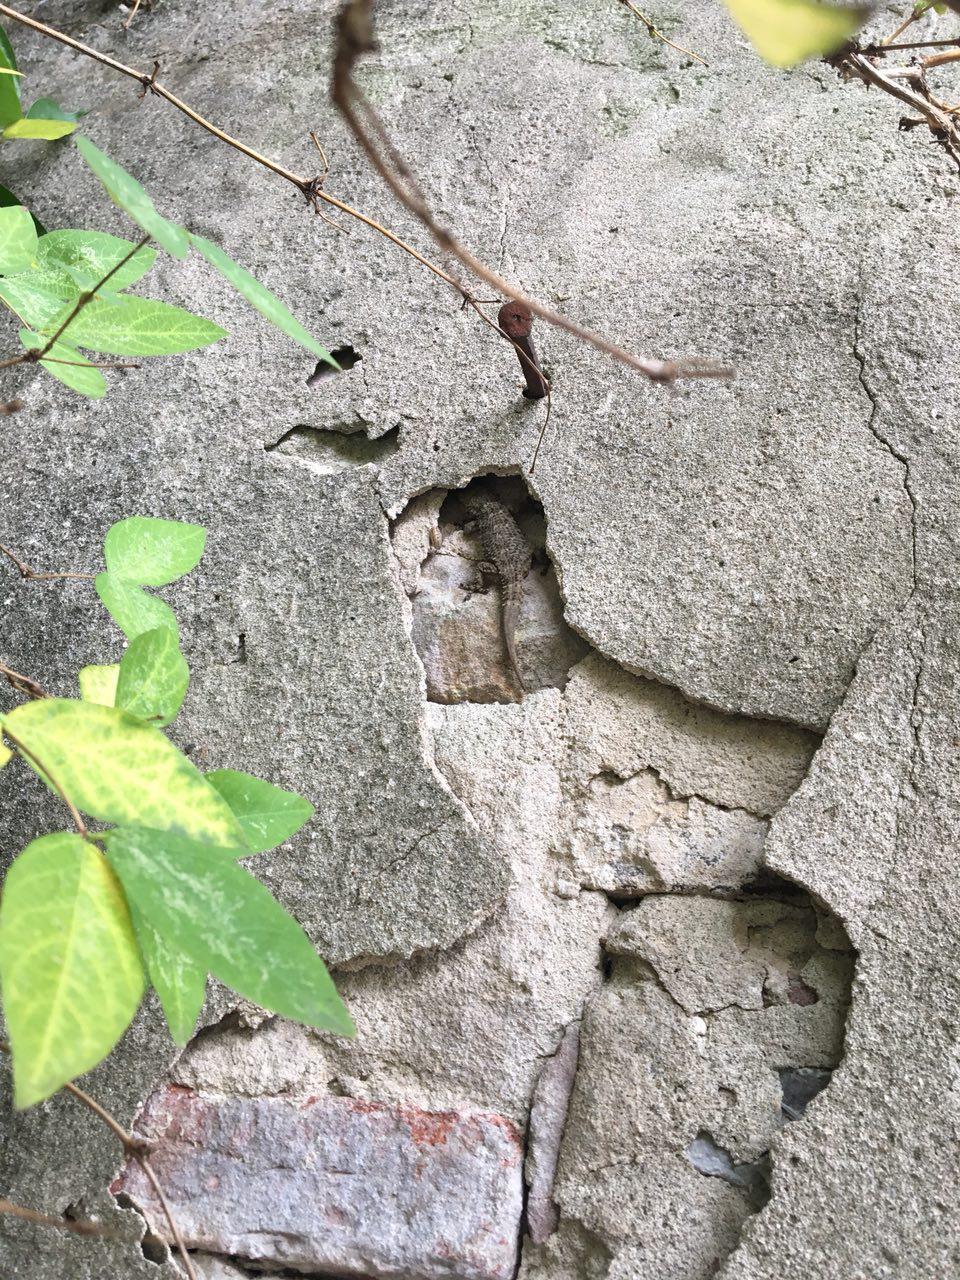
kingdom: Animalia
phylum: Chordata
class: Squamata
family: Phyllodactylidae
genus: Tarentola
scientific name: Tarentola mauritanica
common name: Moorish gecko
